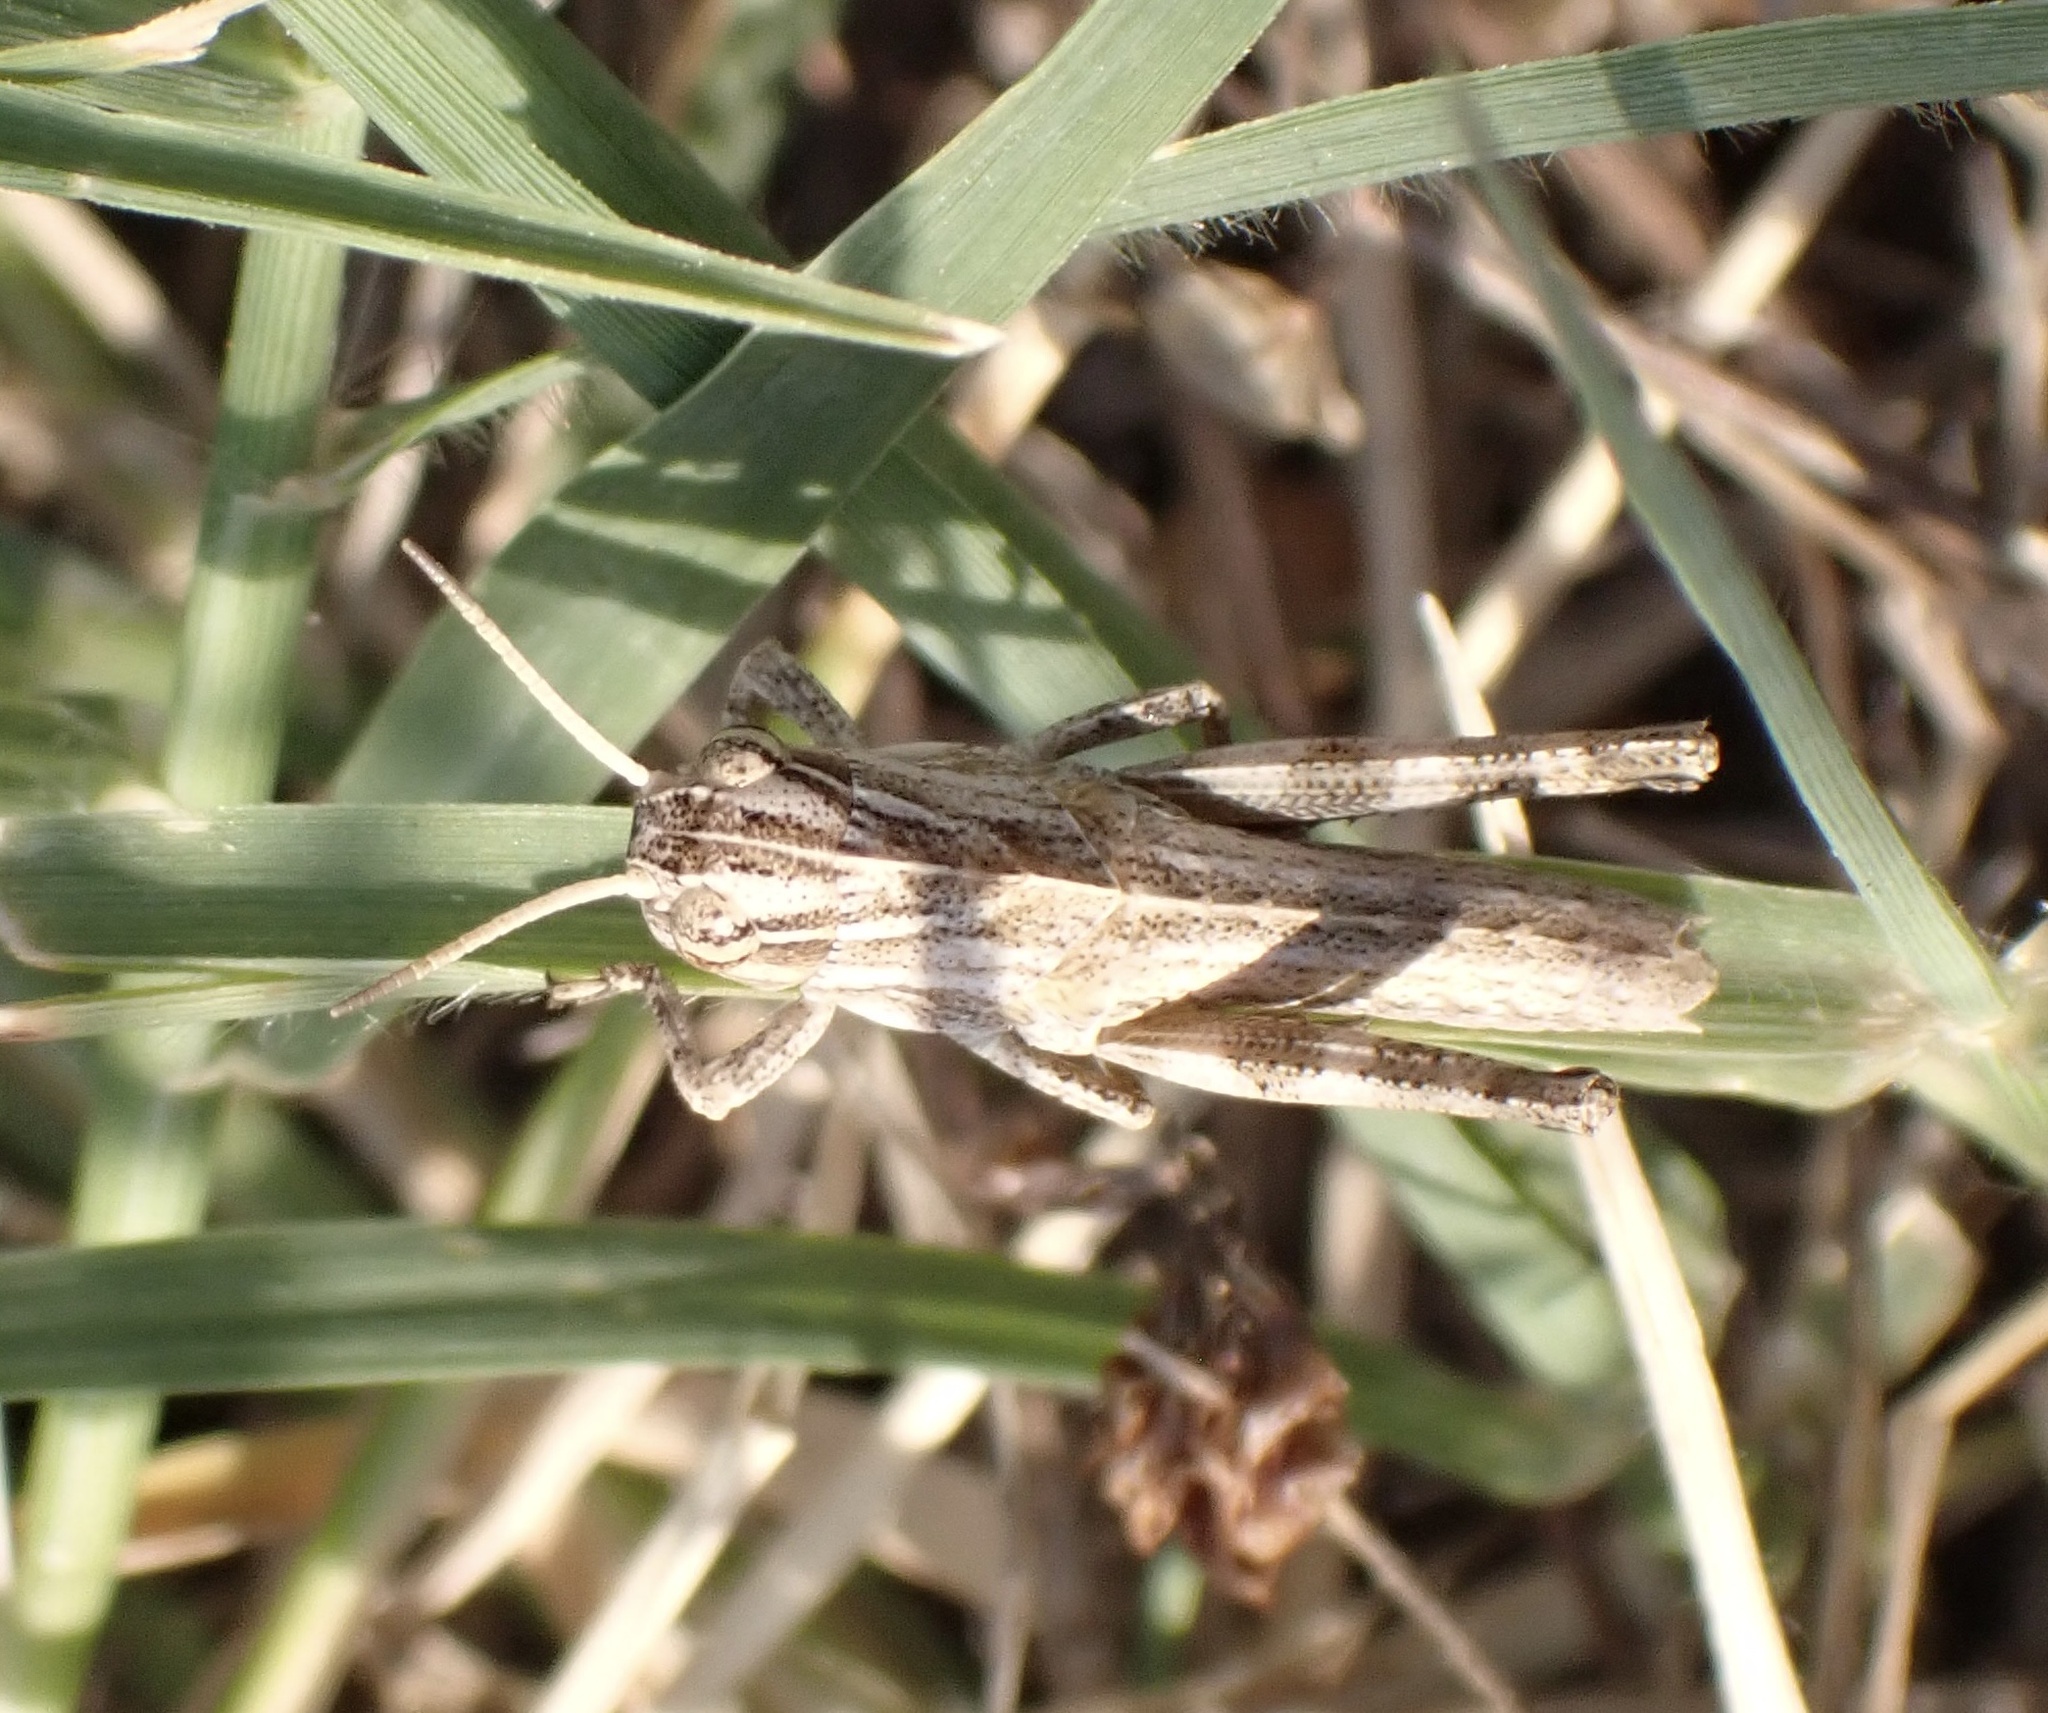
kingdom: Animalia
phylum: Arthropoda
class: Insecta
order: Orthoptera
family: Acrididae
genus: Locusta
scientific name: Locusta migratoria
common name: Migratory locust
